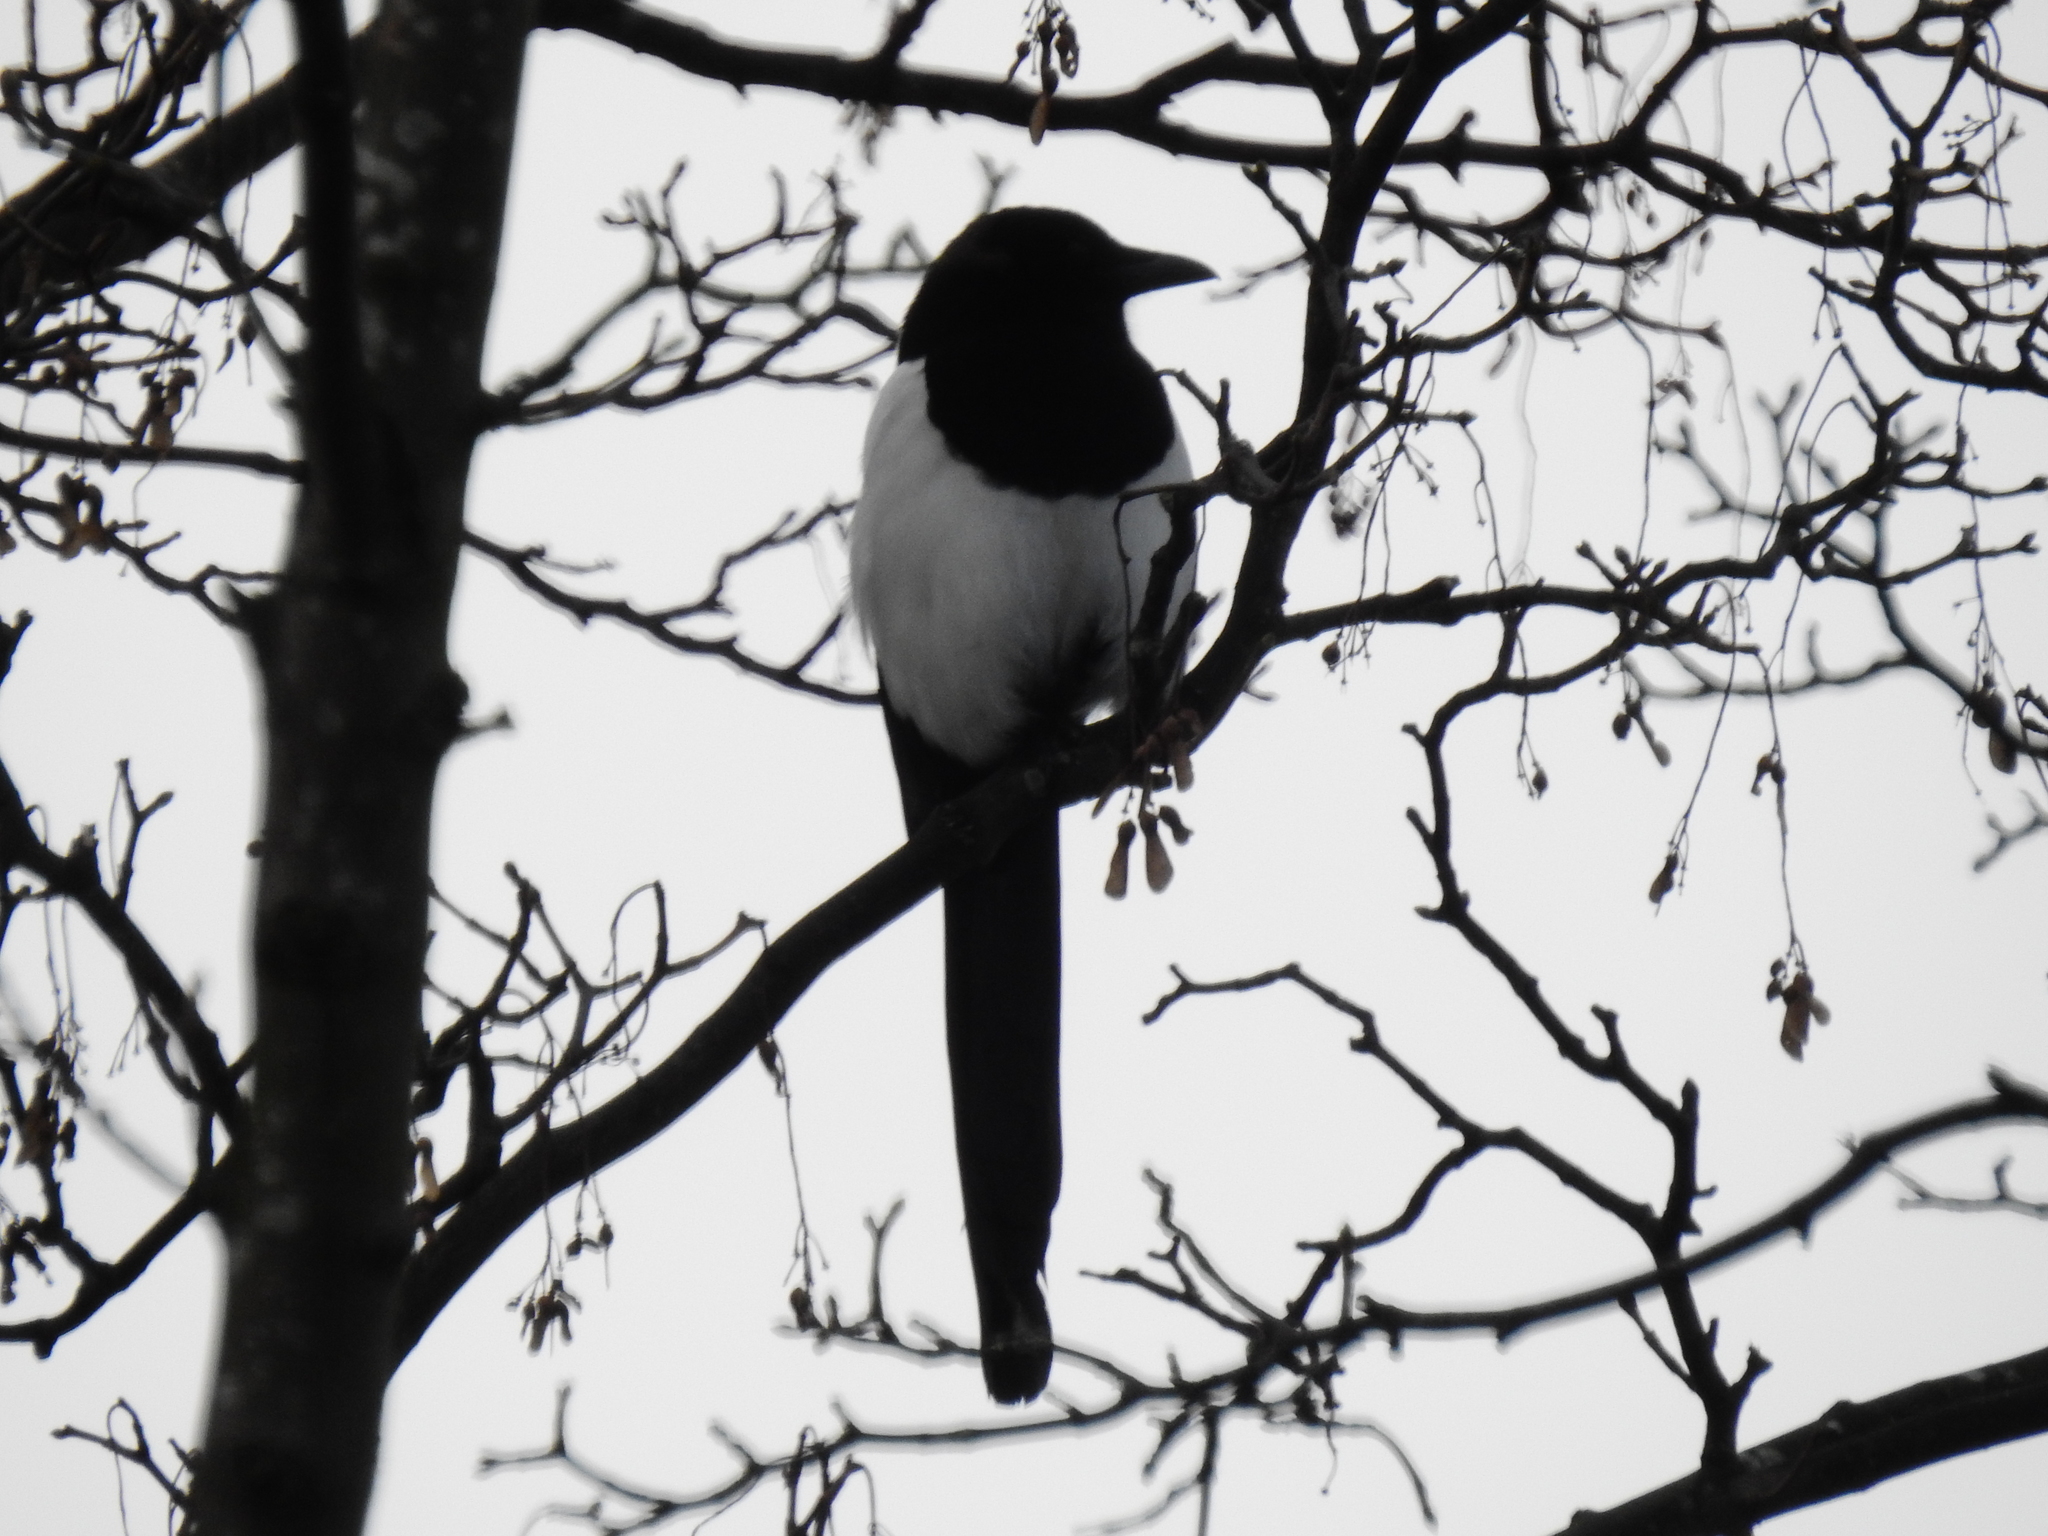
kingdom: Animalia
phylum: Chordata
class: Aves
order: Passeriformes
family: Corvidae
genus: Pica
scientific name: Pica pica
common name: Eurasian magpie
